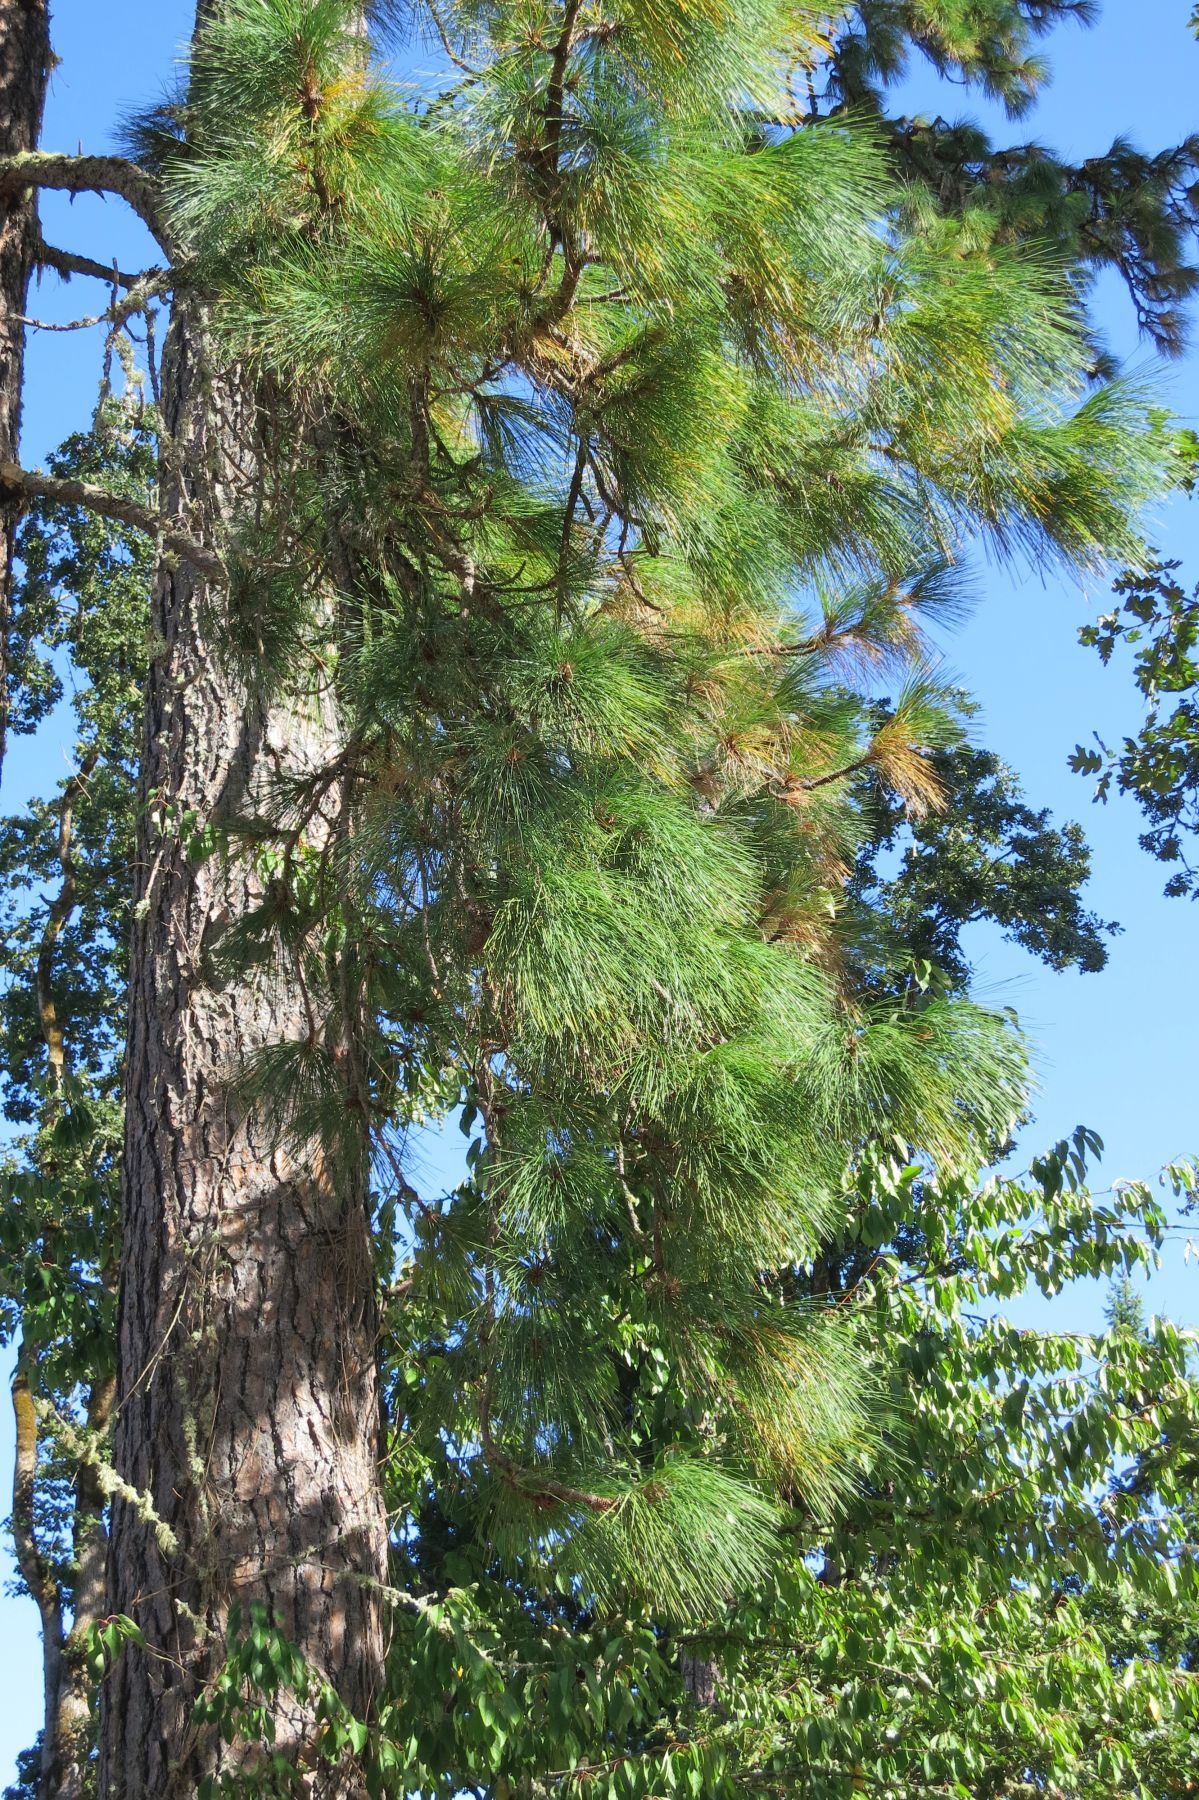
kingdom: Plantae
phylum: Tracheophyta
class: Pinopsida
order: Pinales
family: Pinaceae
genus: Pinus
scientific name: Pinus ponderosa
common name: Western yellow-pine
